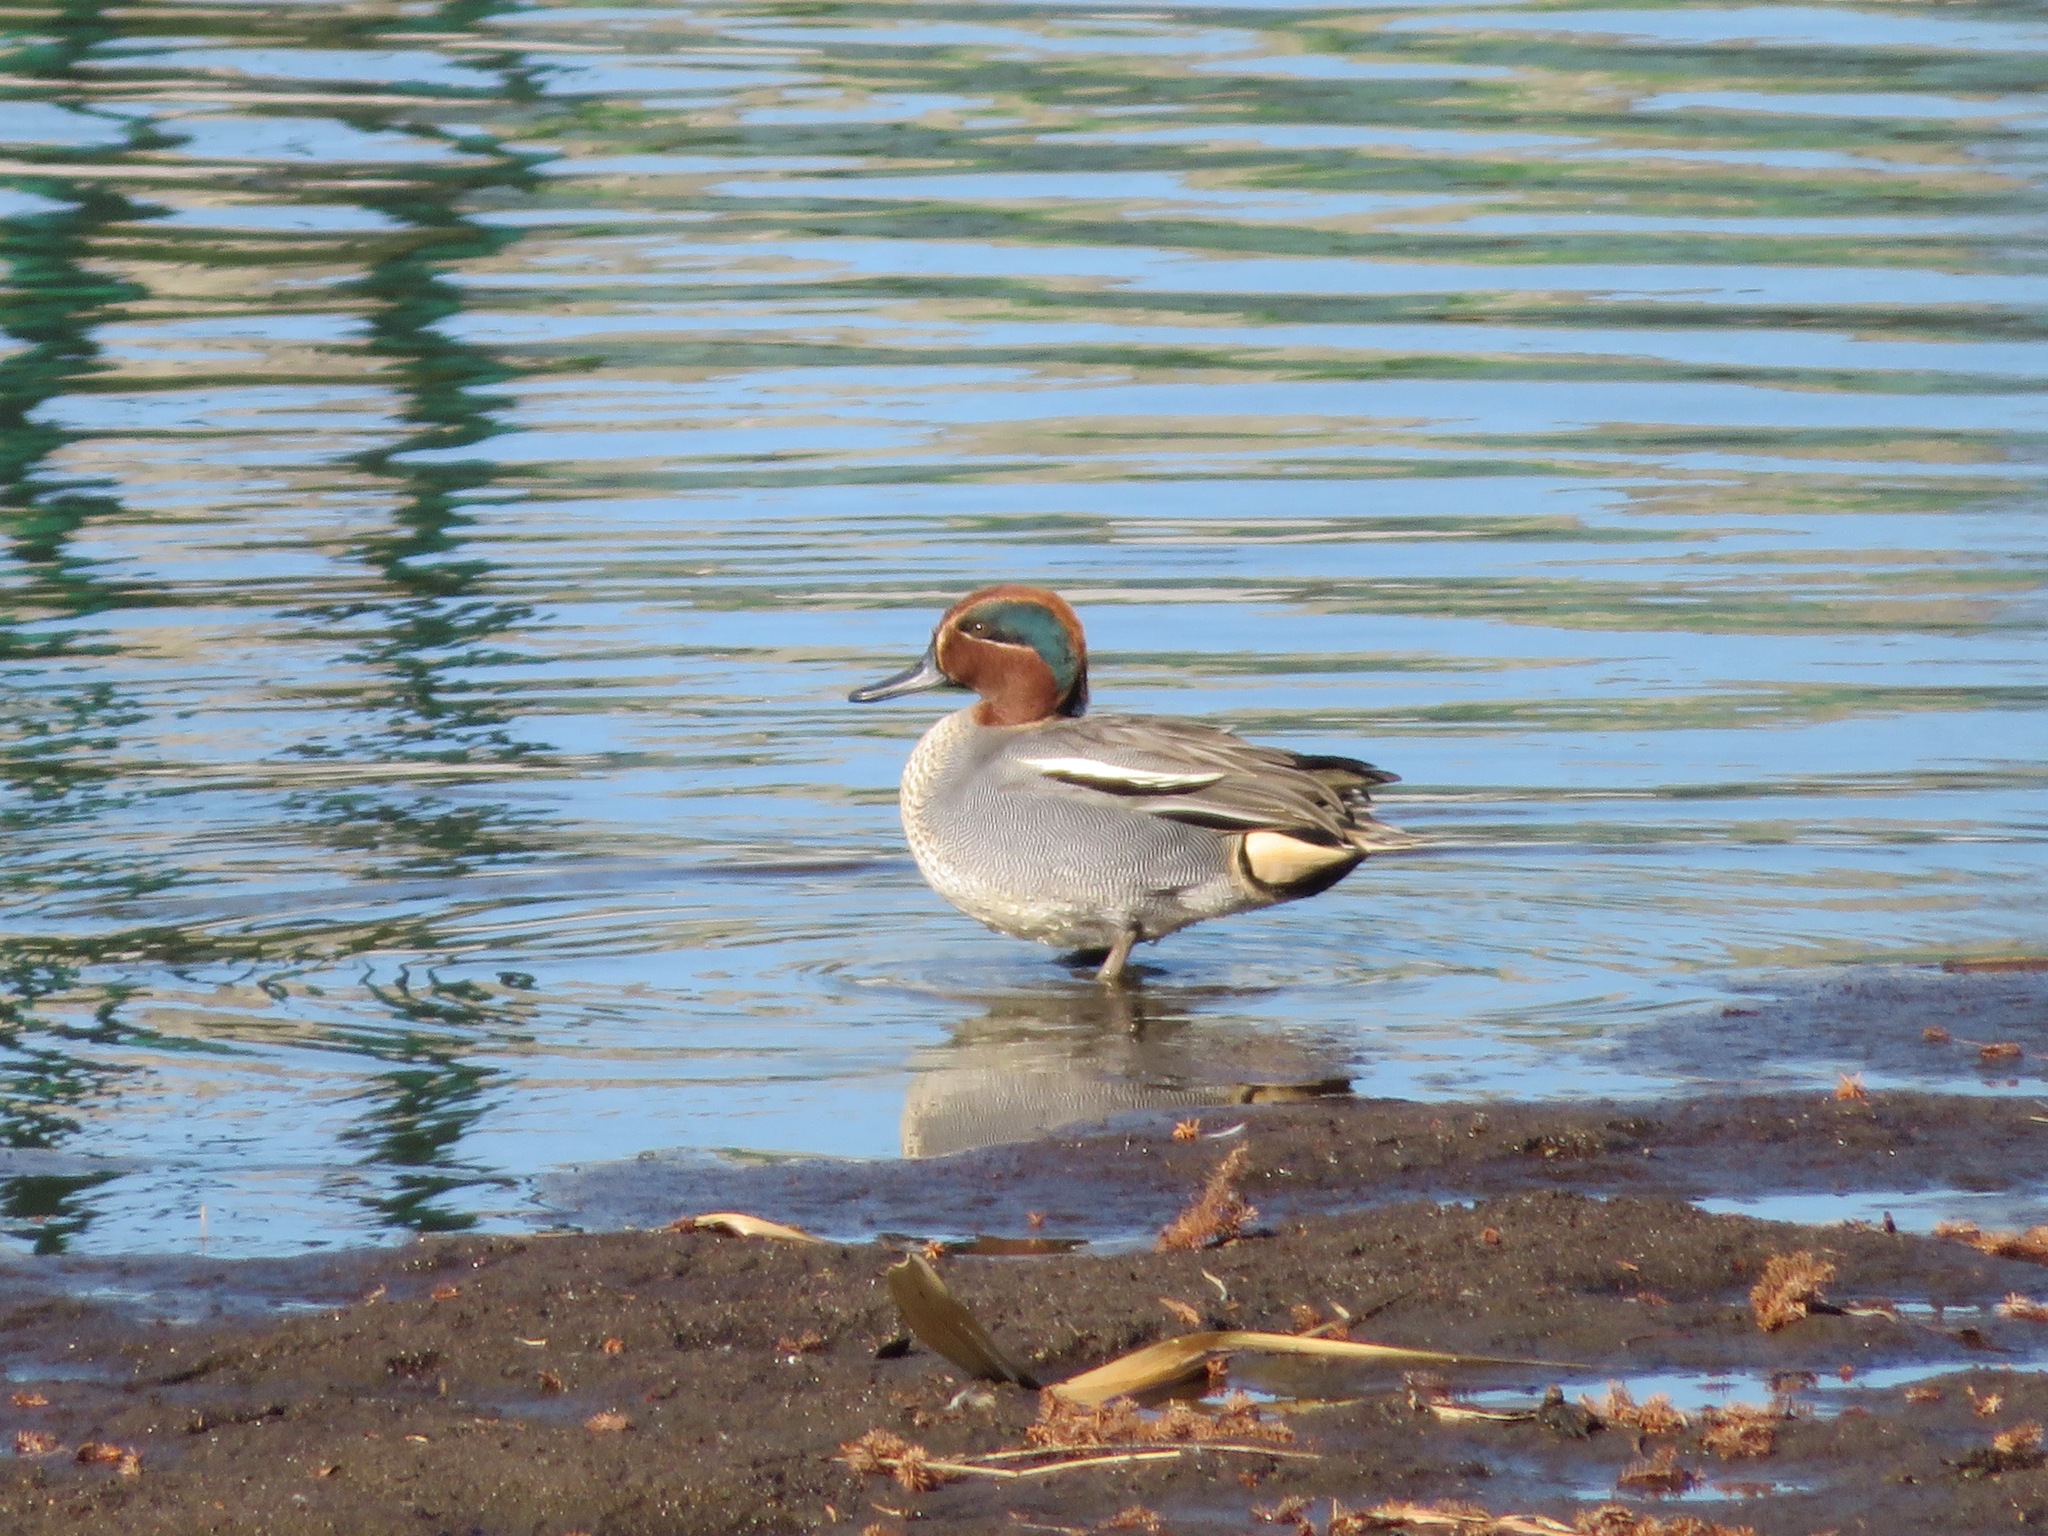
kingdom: Animalia
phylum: Chordata
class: Aves
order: Anseriformes
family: Anatidae
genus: Anas
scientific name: Anas crecca
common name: Eurasian teal
